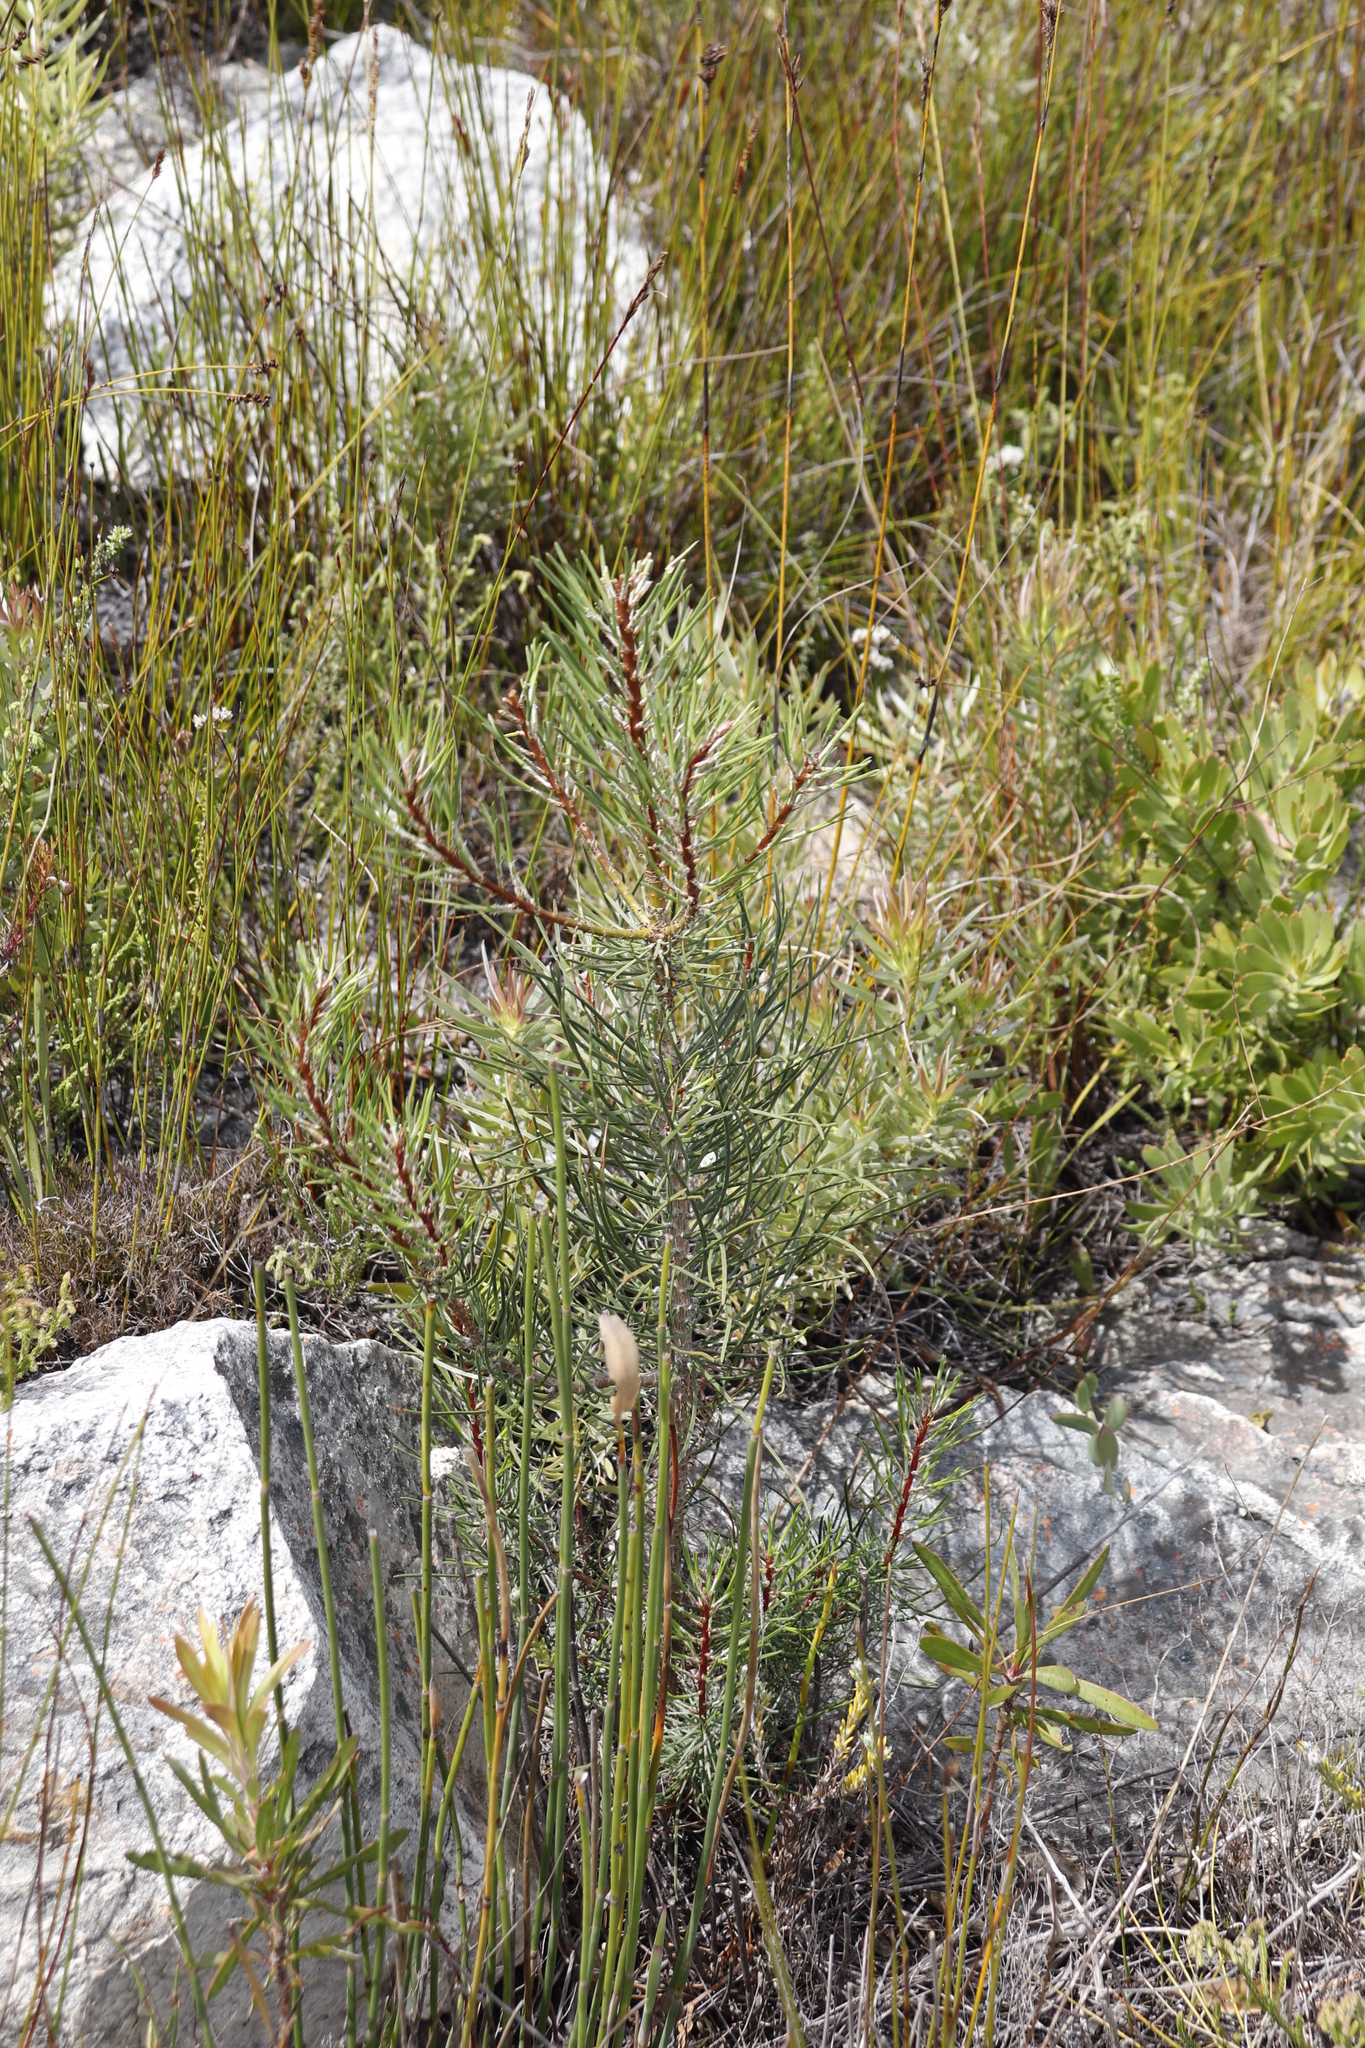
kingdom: Plantae
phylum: Tracheophyta
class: Pinopsida
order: Pinales
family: Pinaceae
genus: Pinus
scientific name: Pinus pinaster
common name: Maritime pine
